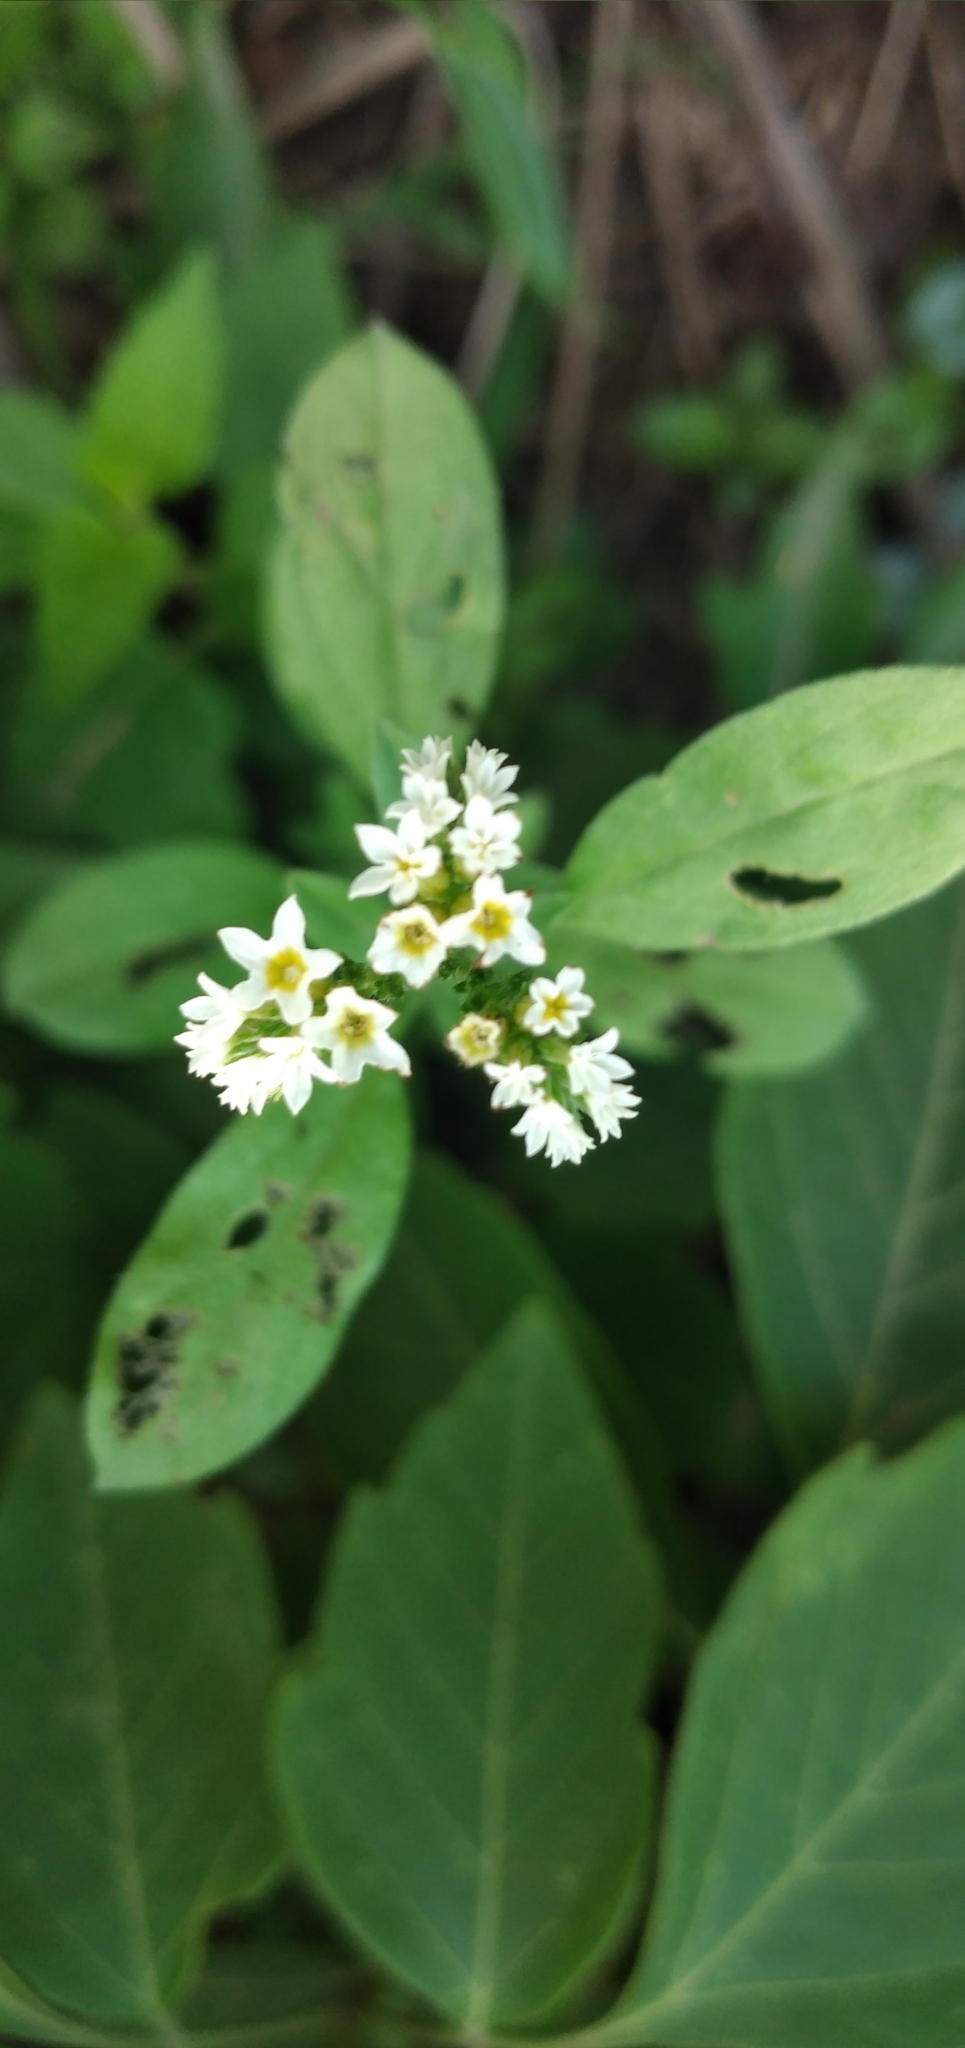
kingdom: Plantae
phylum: Tracheophyta
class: Magnoliopsida
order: Boraginales
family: Heliotropiaceae
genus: Euploca
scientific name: Euploca procumbens
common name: Fourspike heliotrope
